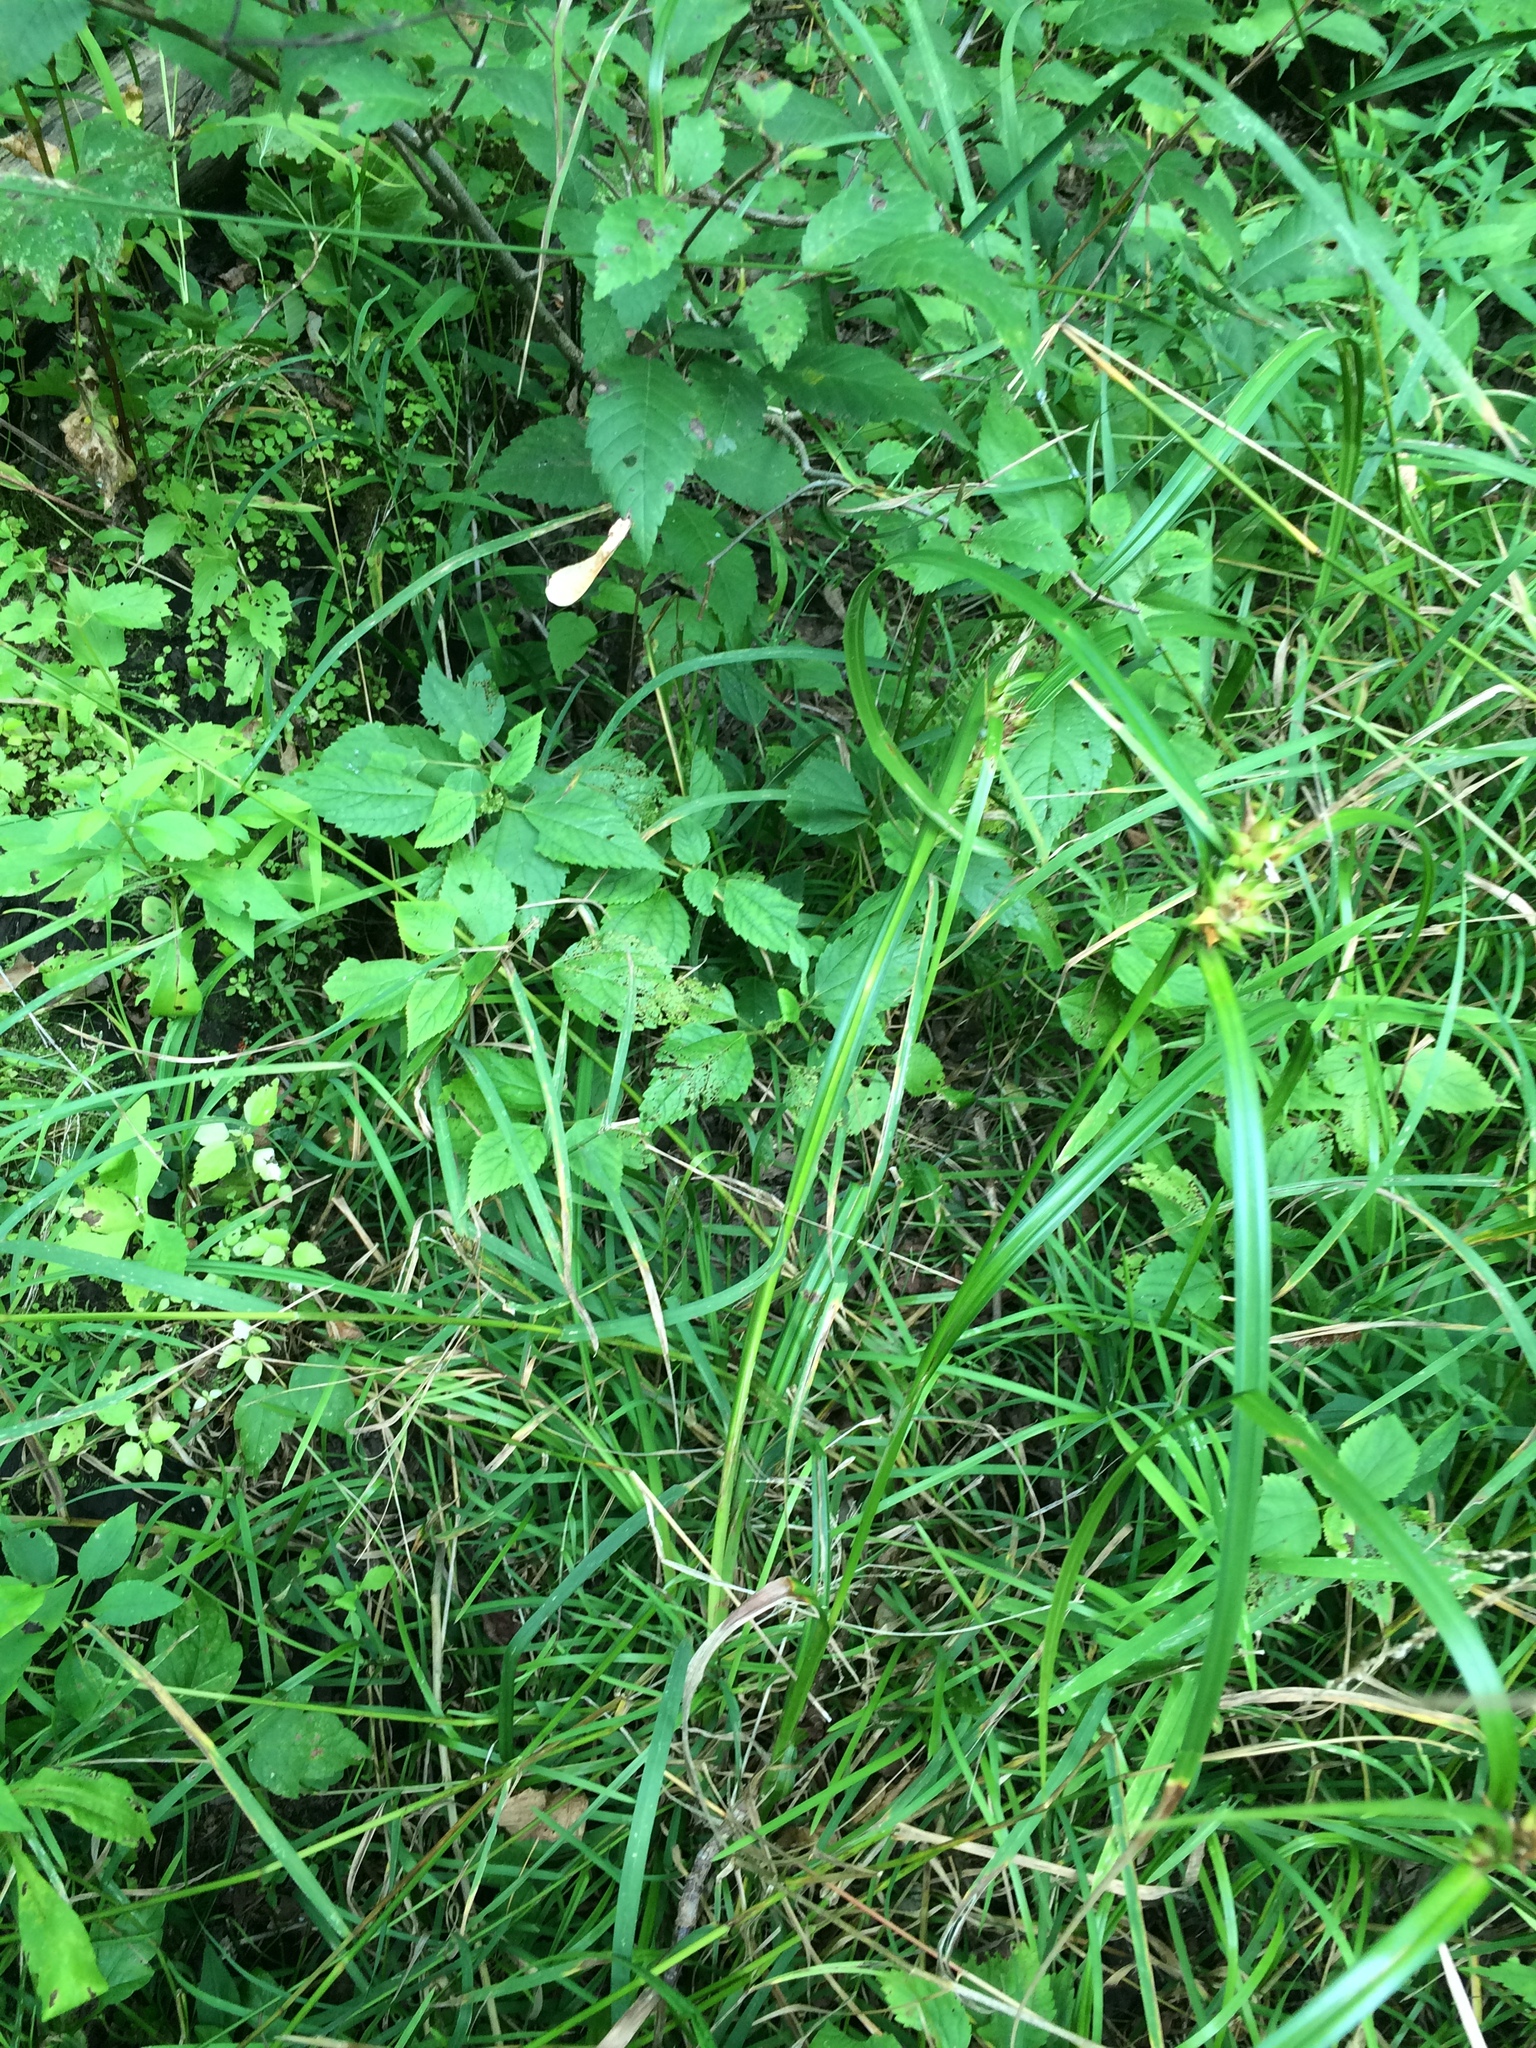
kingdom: Plantae
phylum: Tracheophyta
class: Liliopsida
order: Poales
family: Cyperaceae
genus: Carex
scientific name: Carex lupulina
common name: Hop sedge
